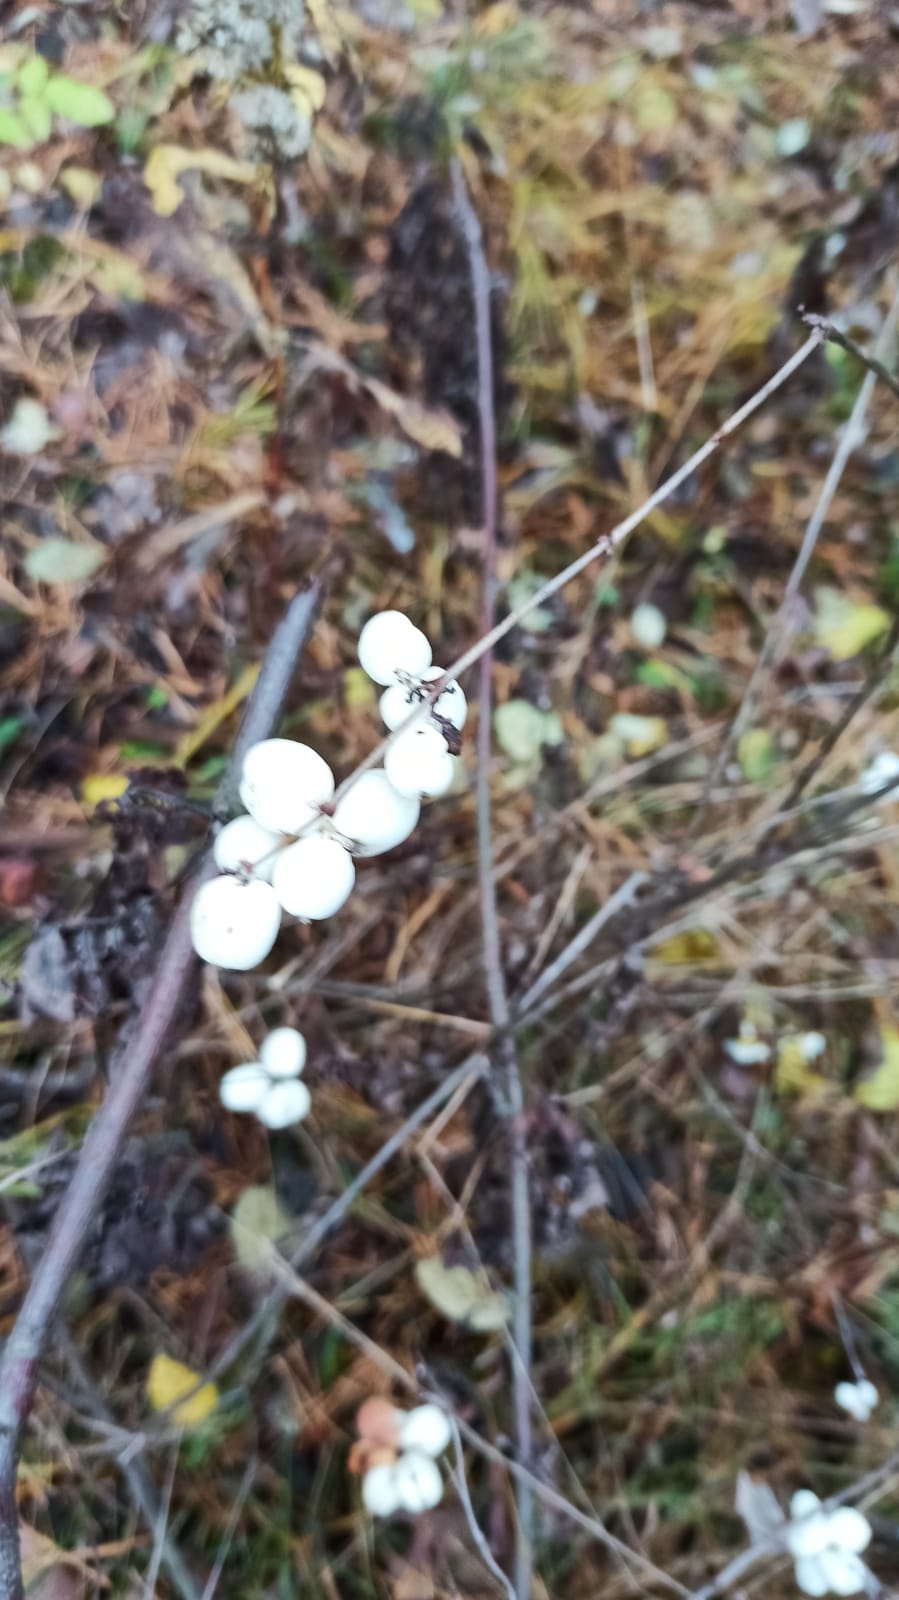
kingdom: Plantae
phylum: Tracheophyta
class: Magnoliopsida
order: Dipsacales
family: Caprifoliaceae
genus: Symphoricarpos
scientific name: Symphoricarpos albus
